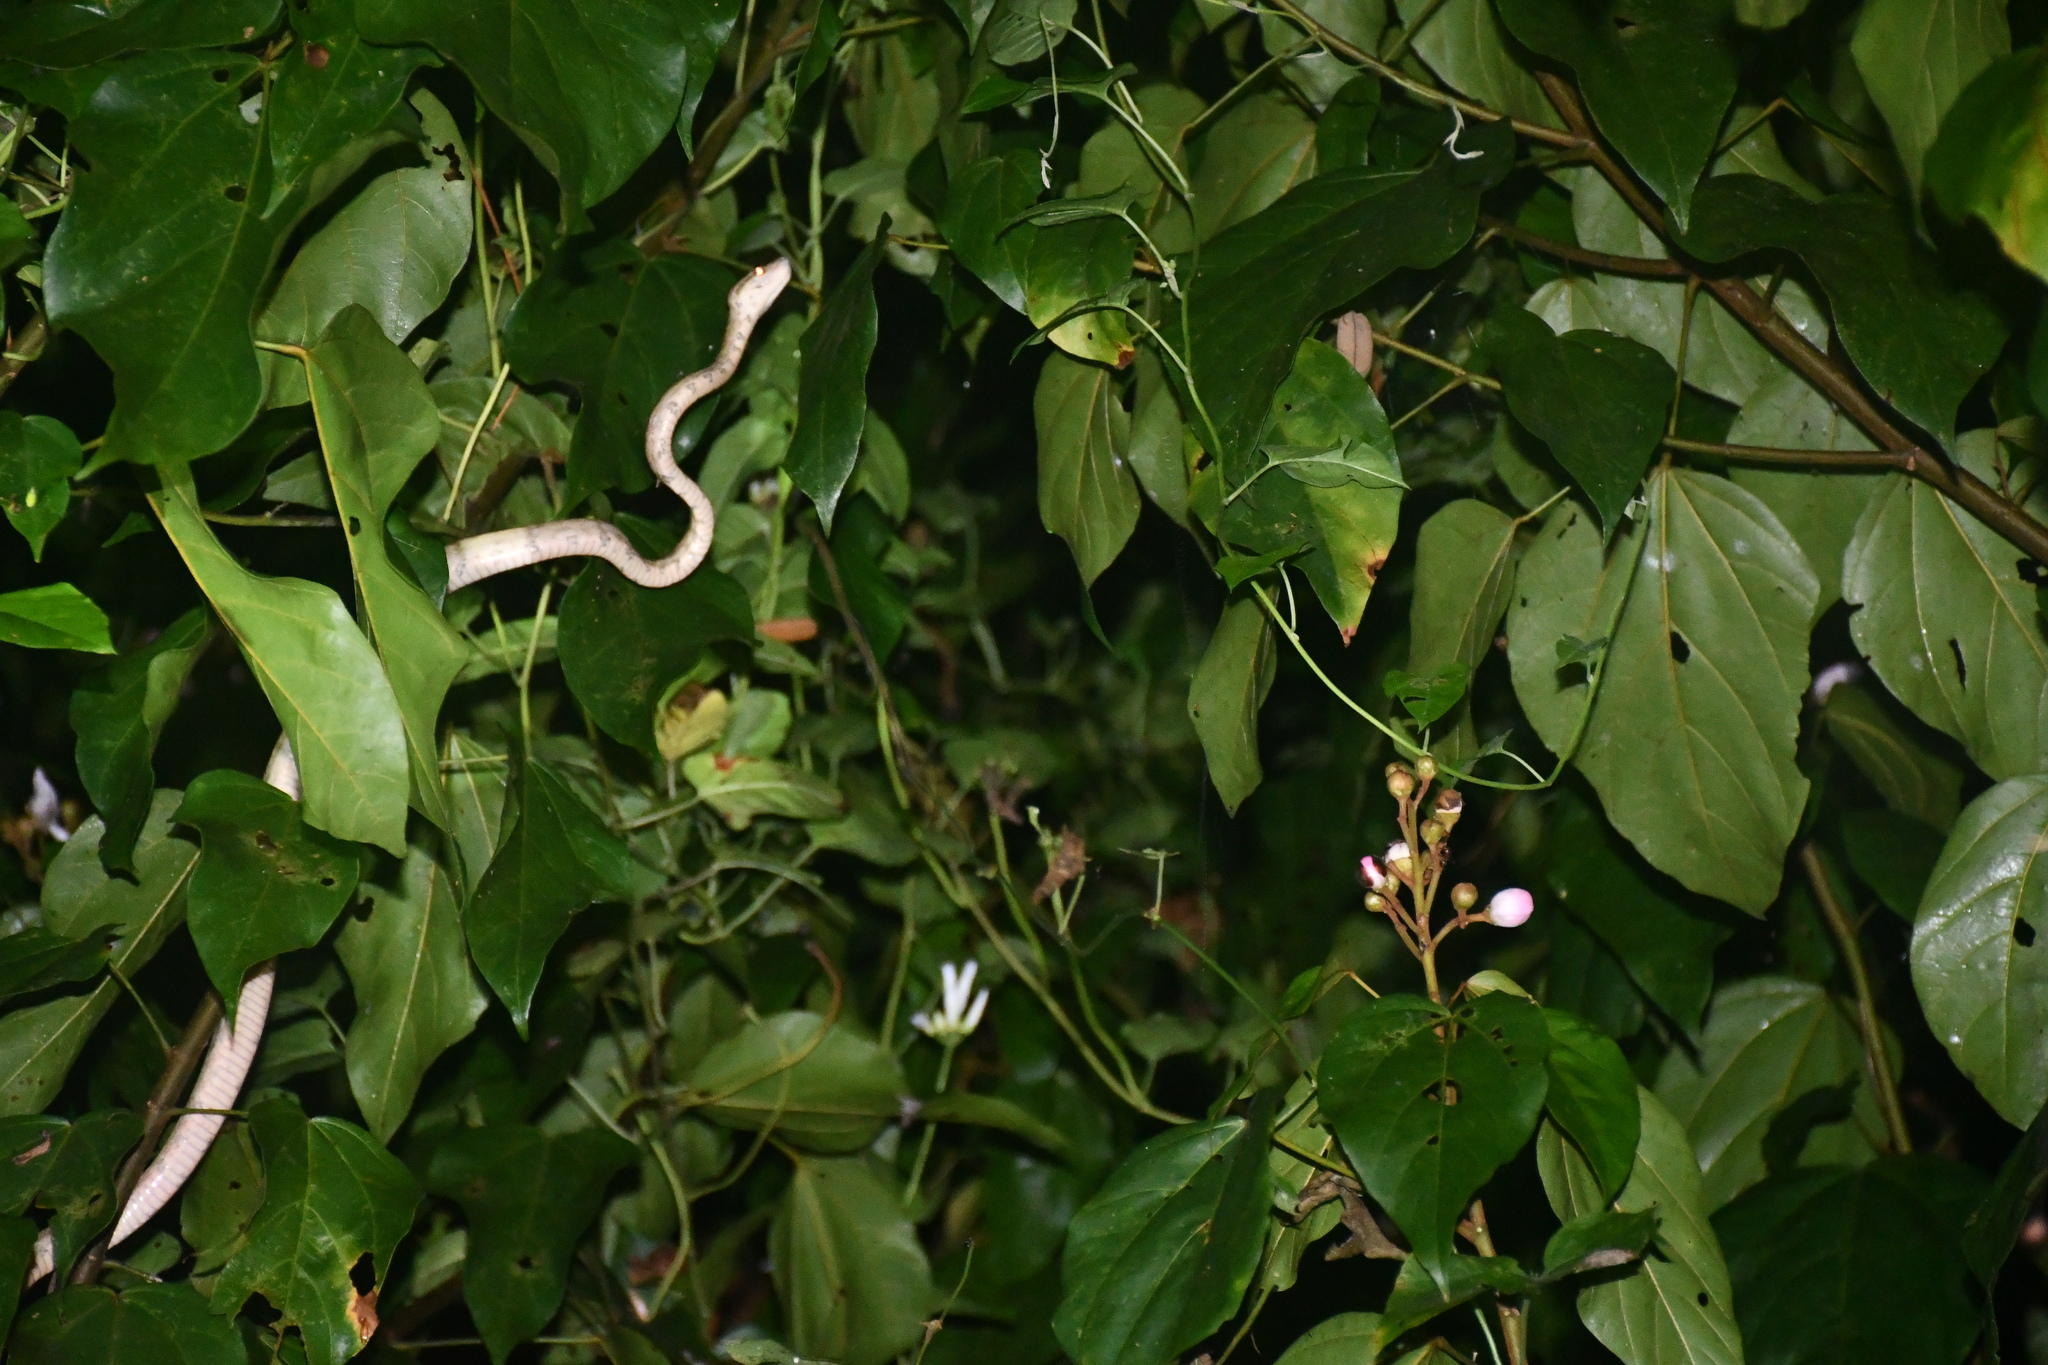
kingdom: Animalia
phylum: Chordata
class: Squamata
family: Boidae
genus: Corallus
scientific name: Corallus hortulana
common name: Garden tree boa
